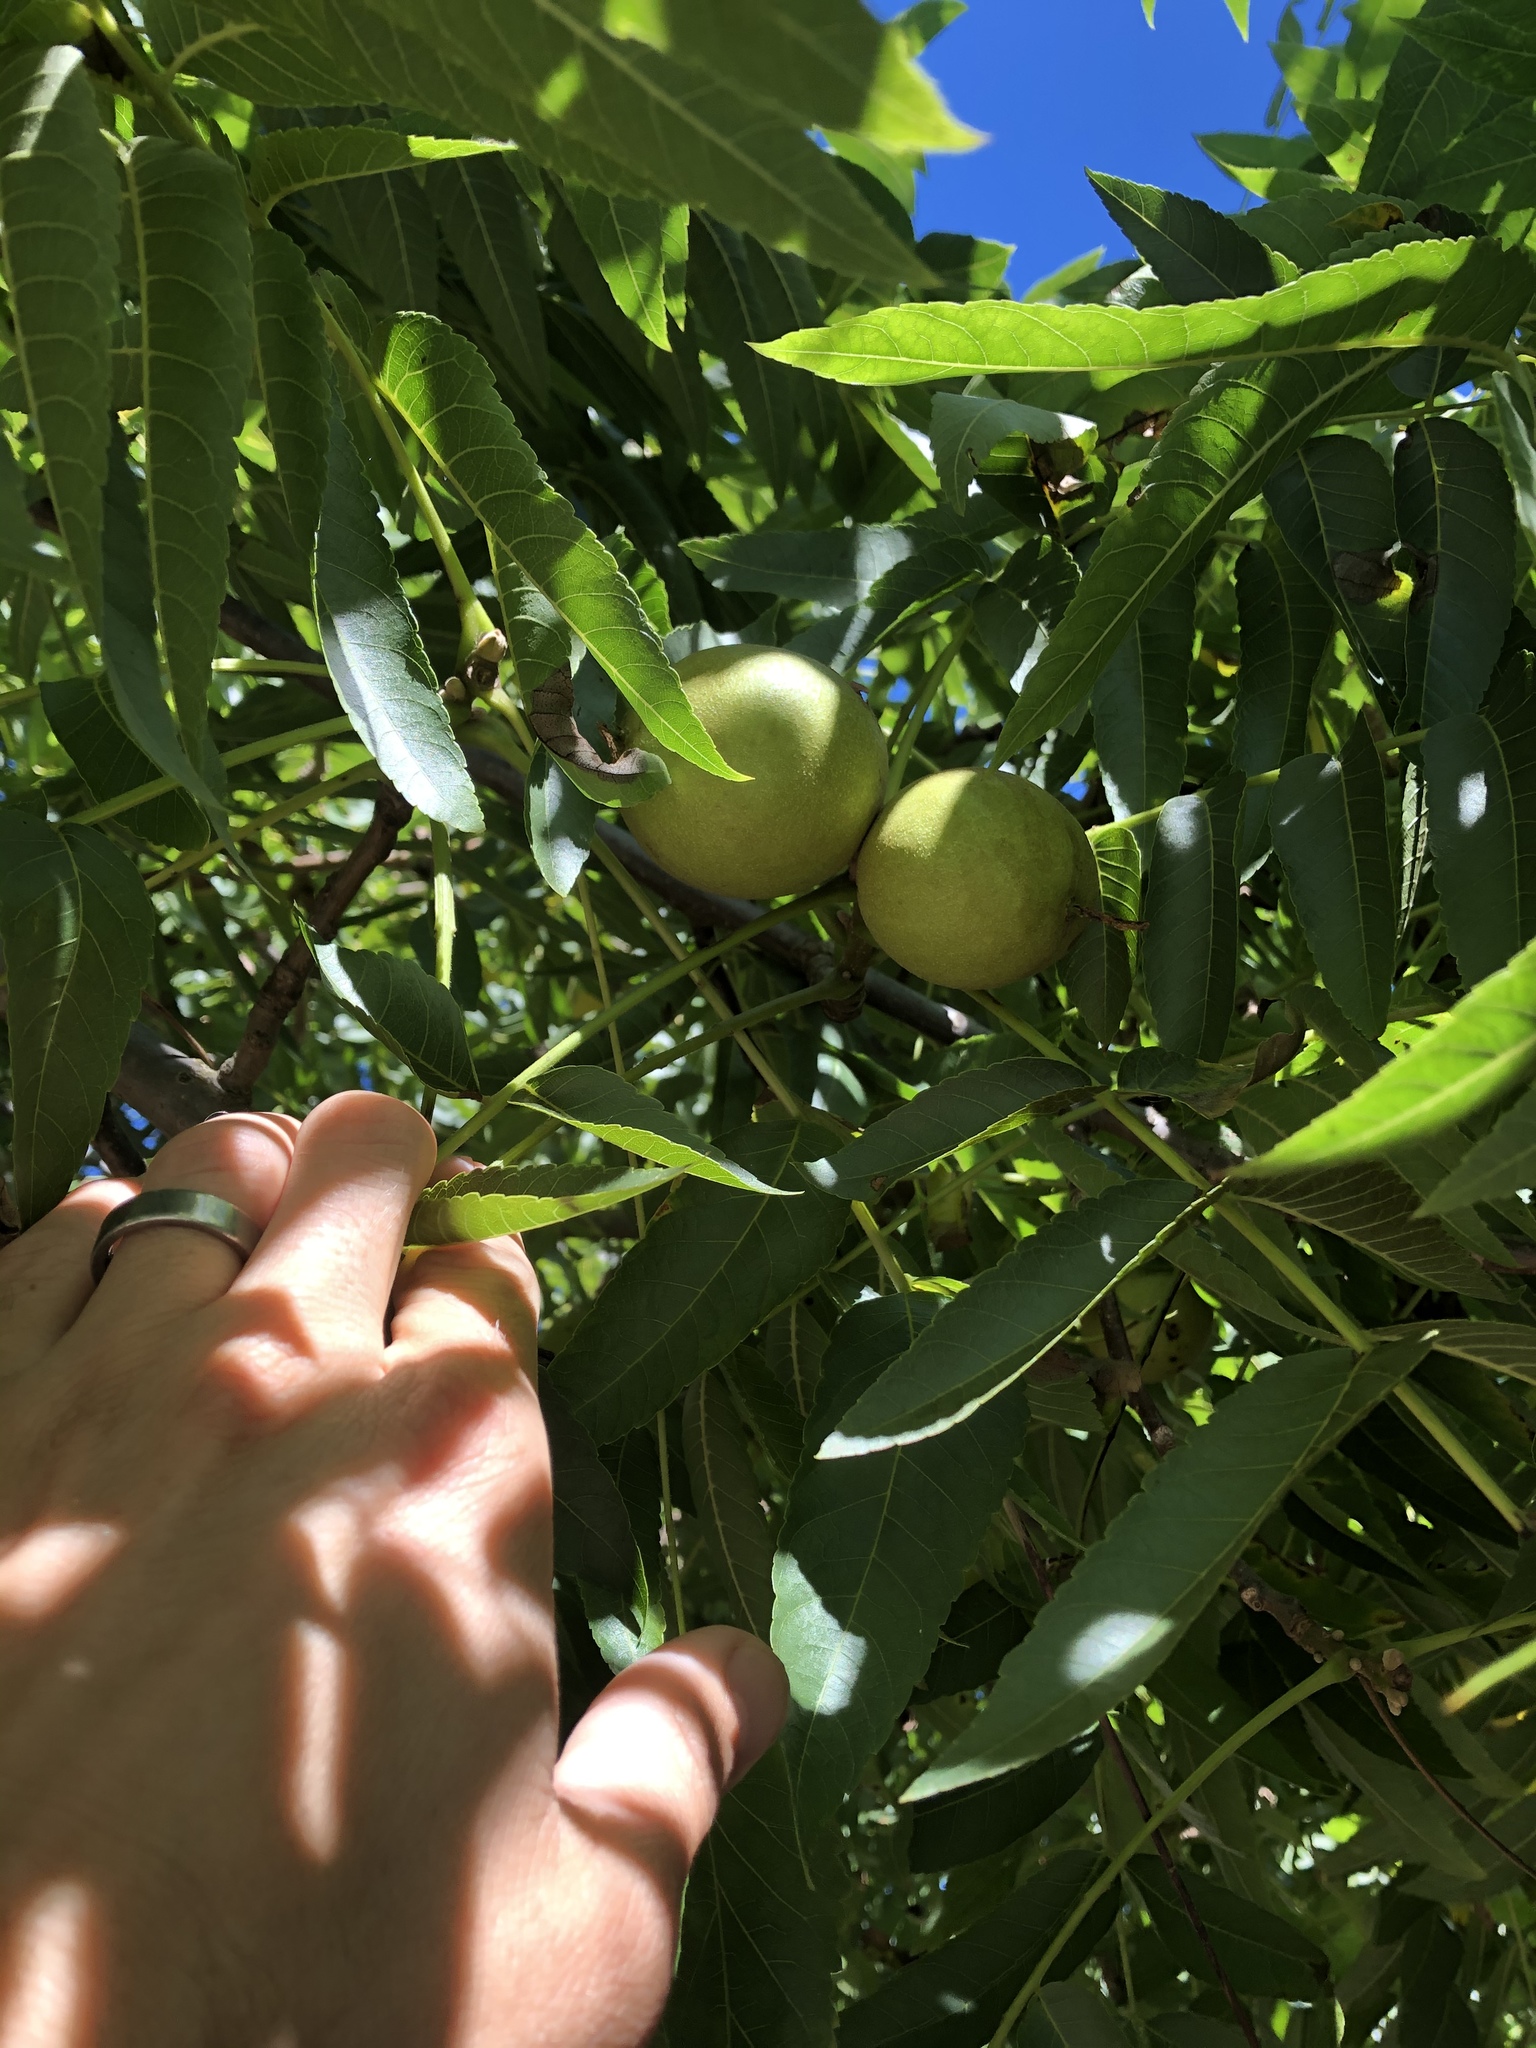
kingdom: Plantae
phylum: Tracheophyta
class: Magnoliopsida
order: Fagales
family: Juglandaceae
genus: Juglans
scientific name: Juglans nigra
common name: Black walnut
